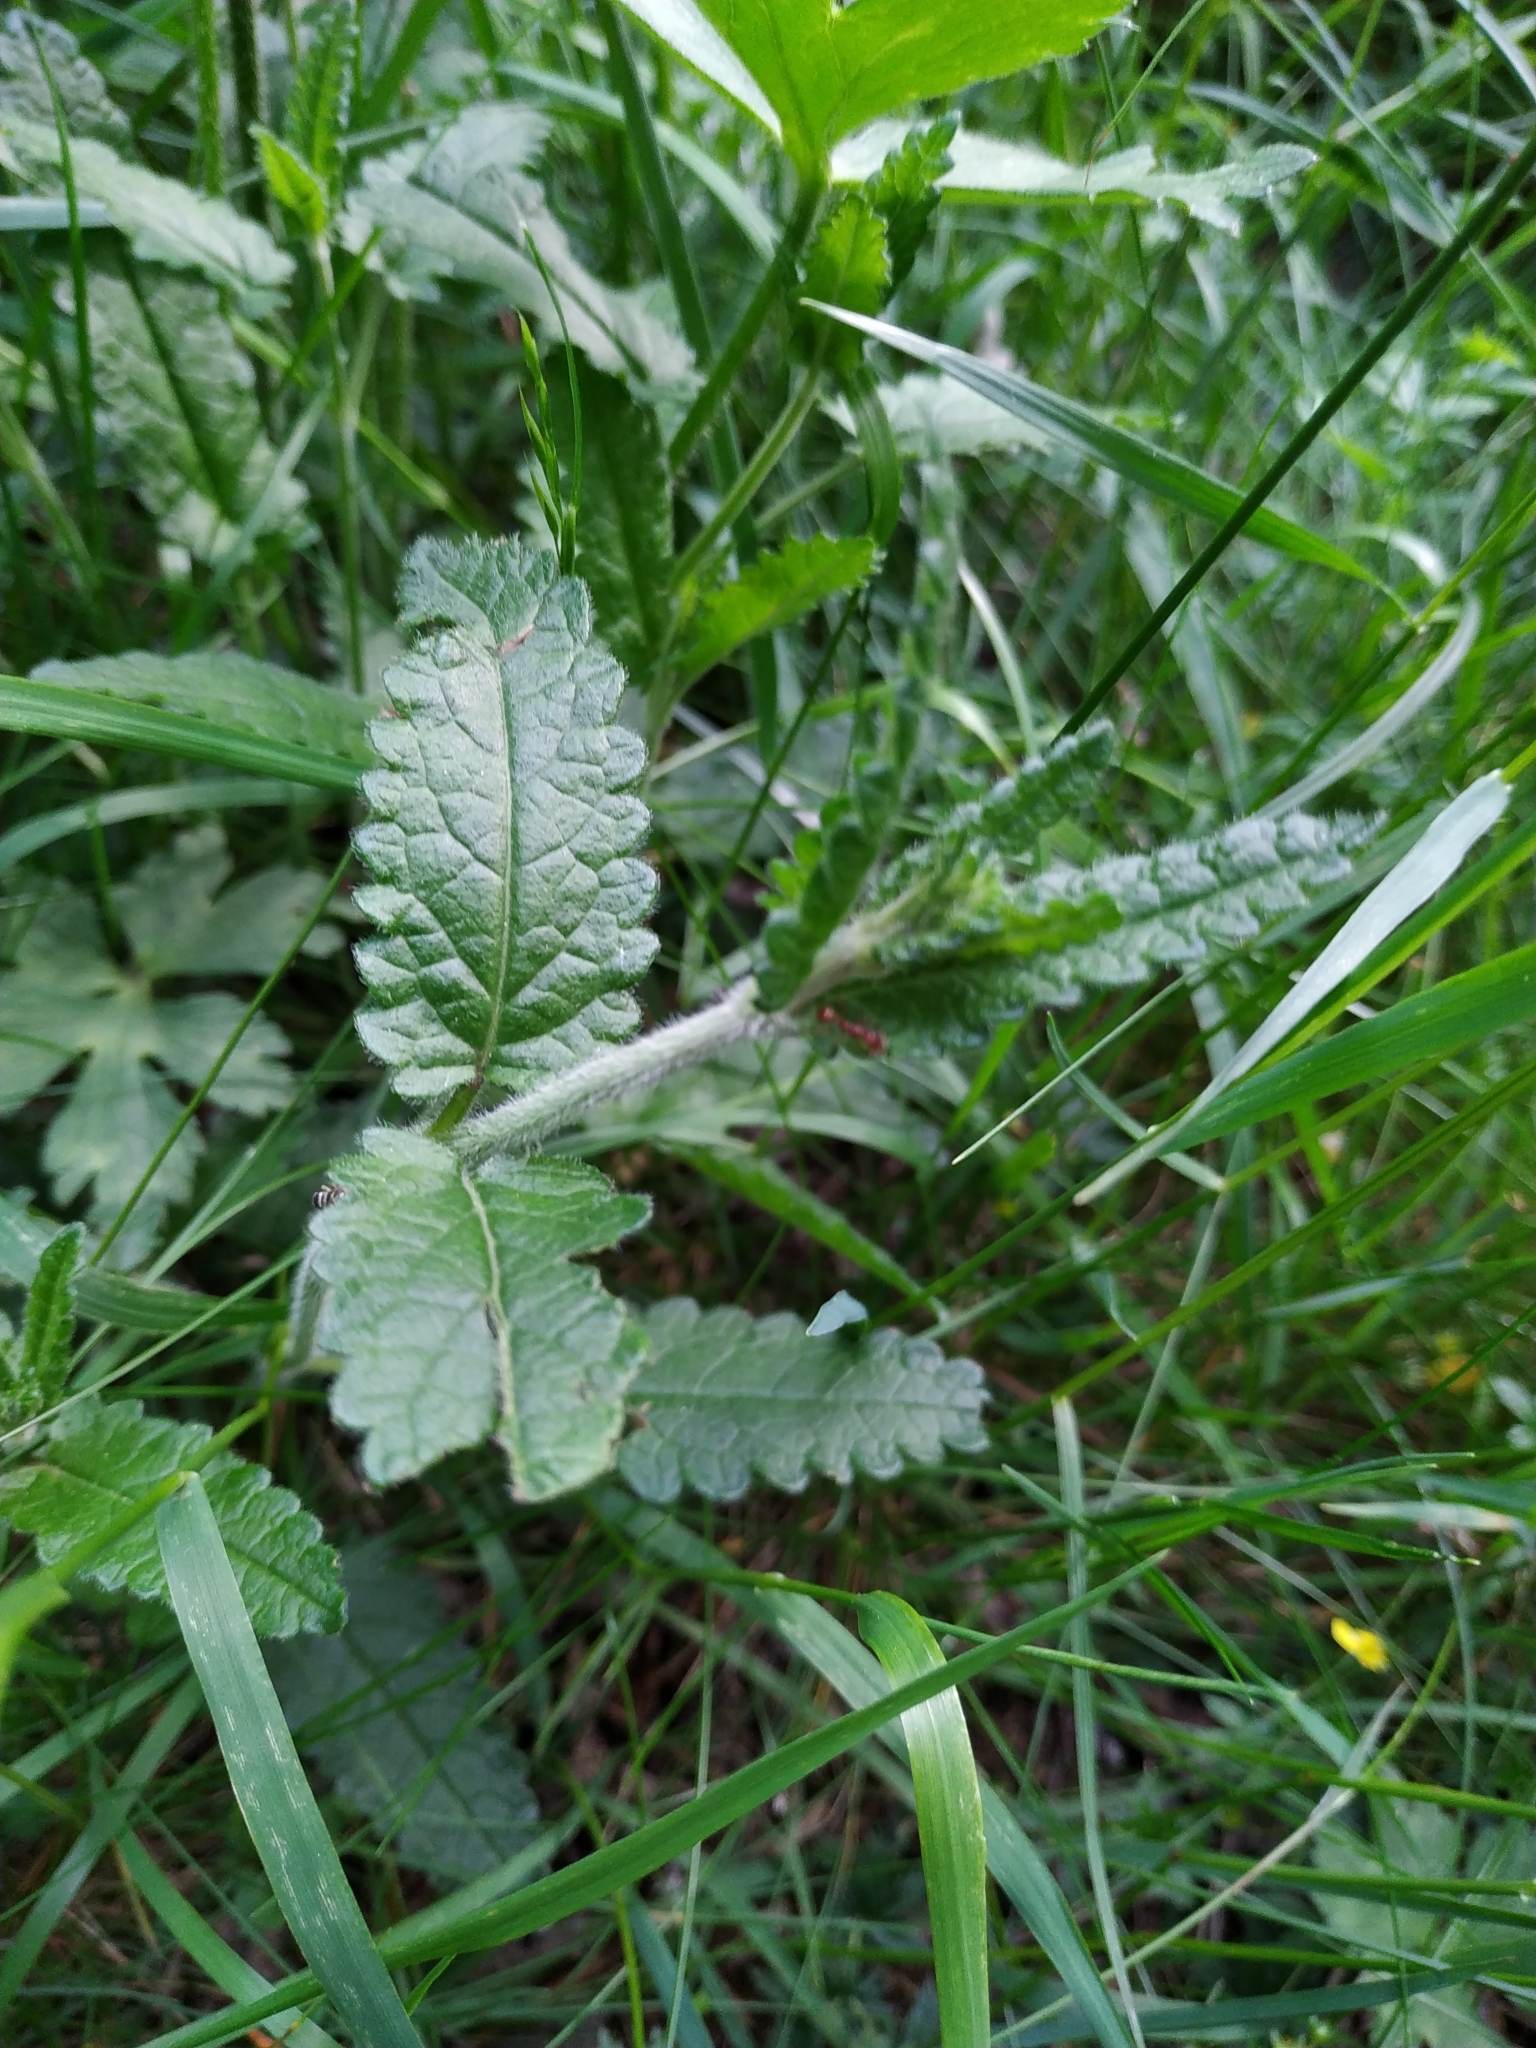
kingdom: Plantae
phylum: Tracheophyta
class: Magnoliopsida
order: Lamiales
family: Lamiaceae
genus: Betonica
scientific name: Betonica officinalis
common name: Bishop's-wort
